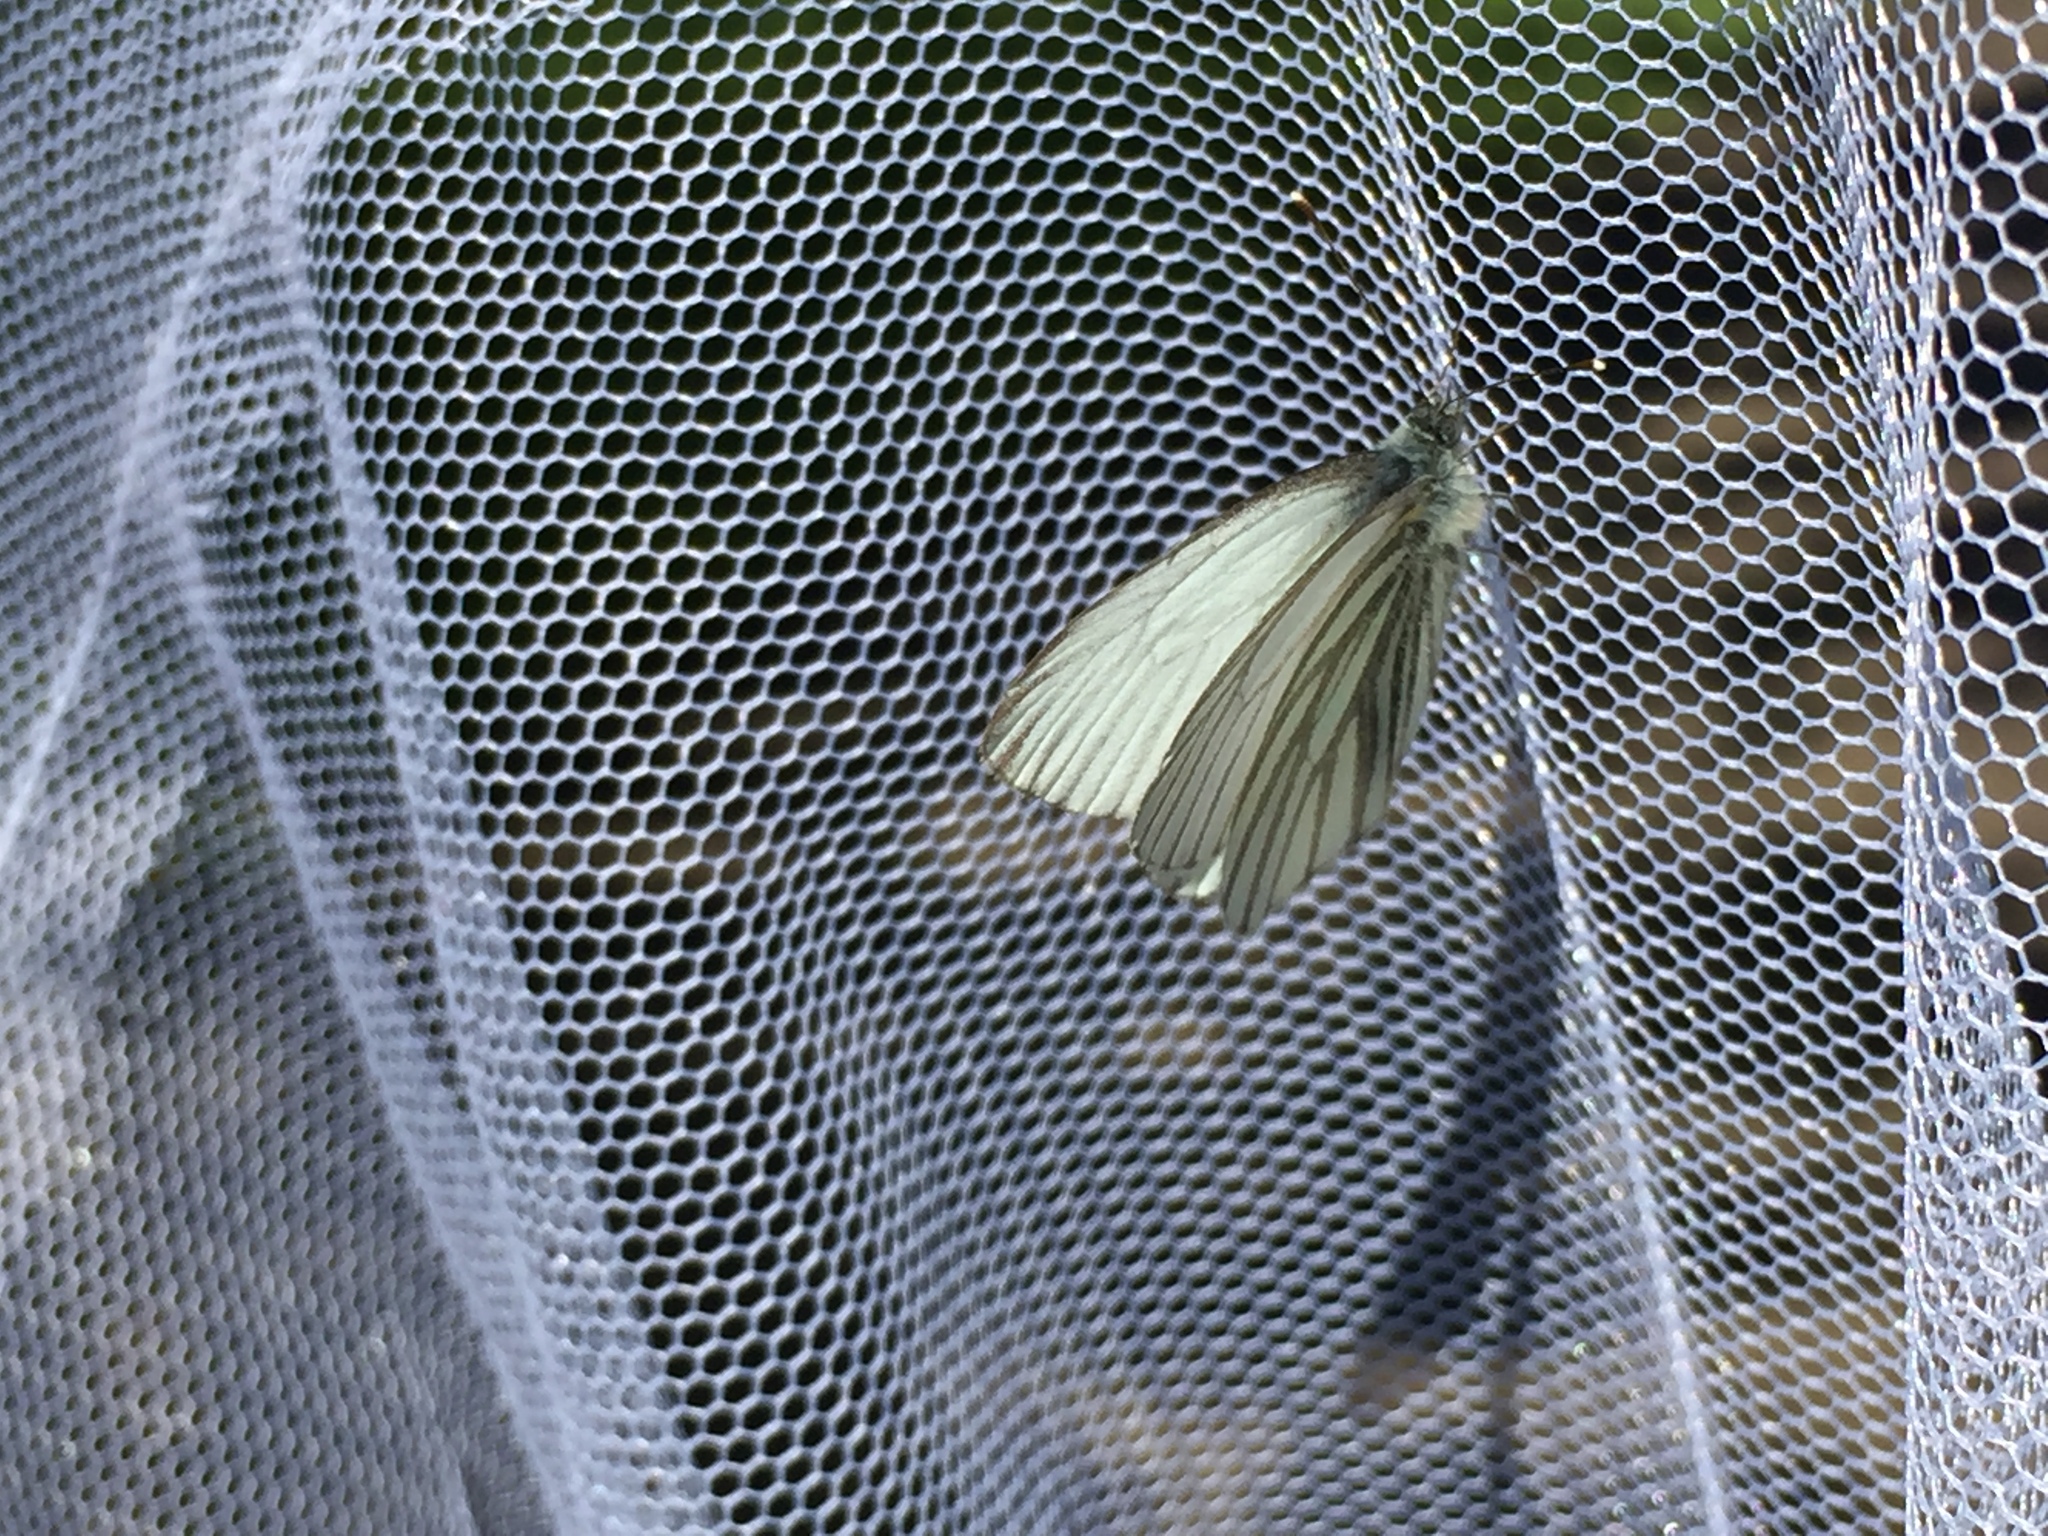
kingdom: Animalia
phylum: Arthropoda
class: Insecta
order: Lepidoptera
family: Pieridae
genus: Pieris
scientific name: Pieris angelika
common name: Arctic white
